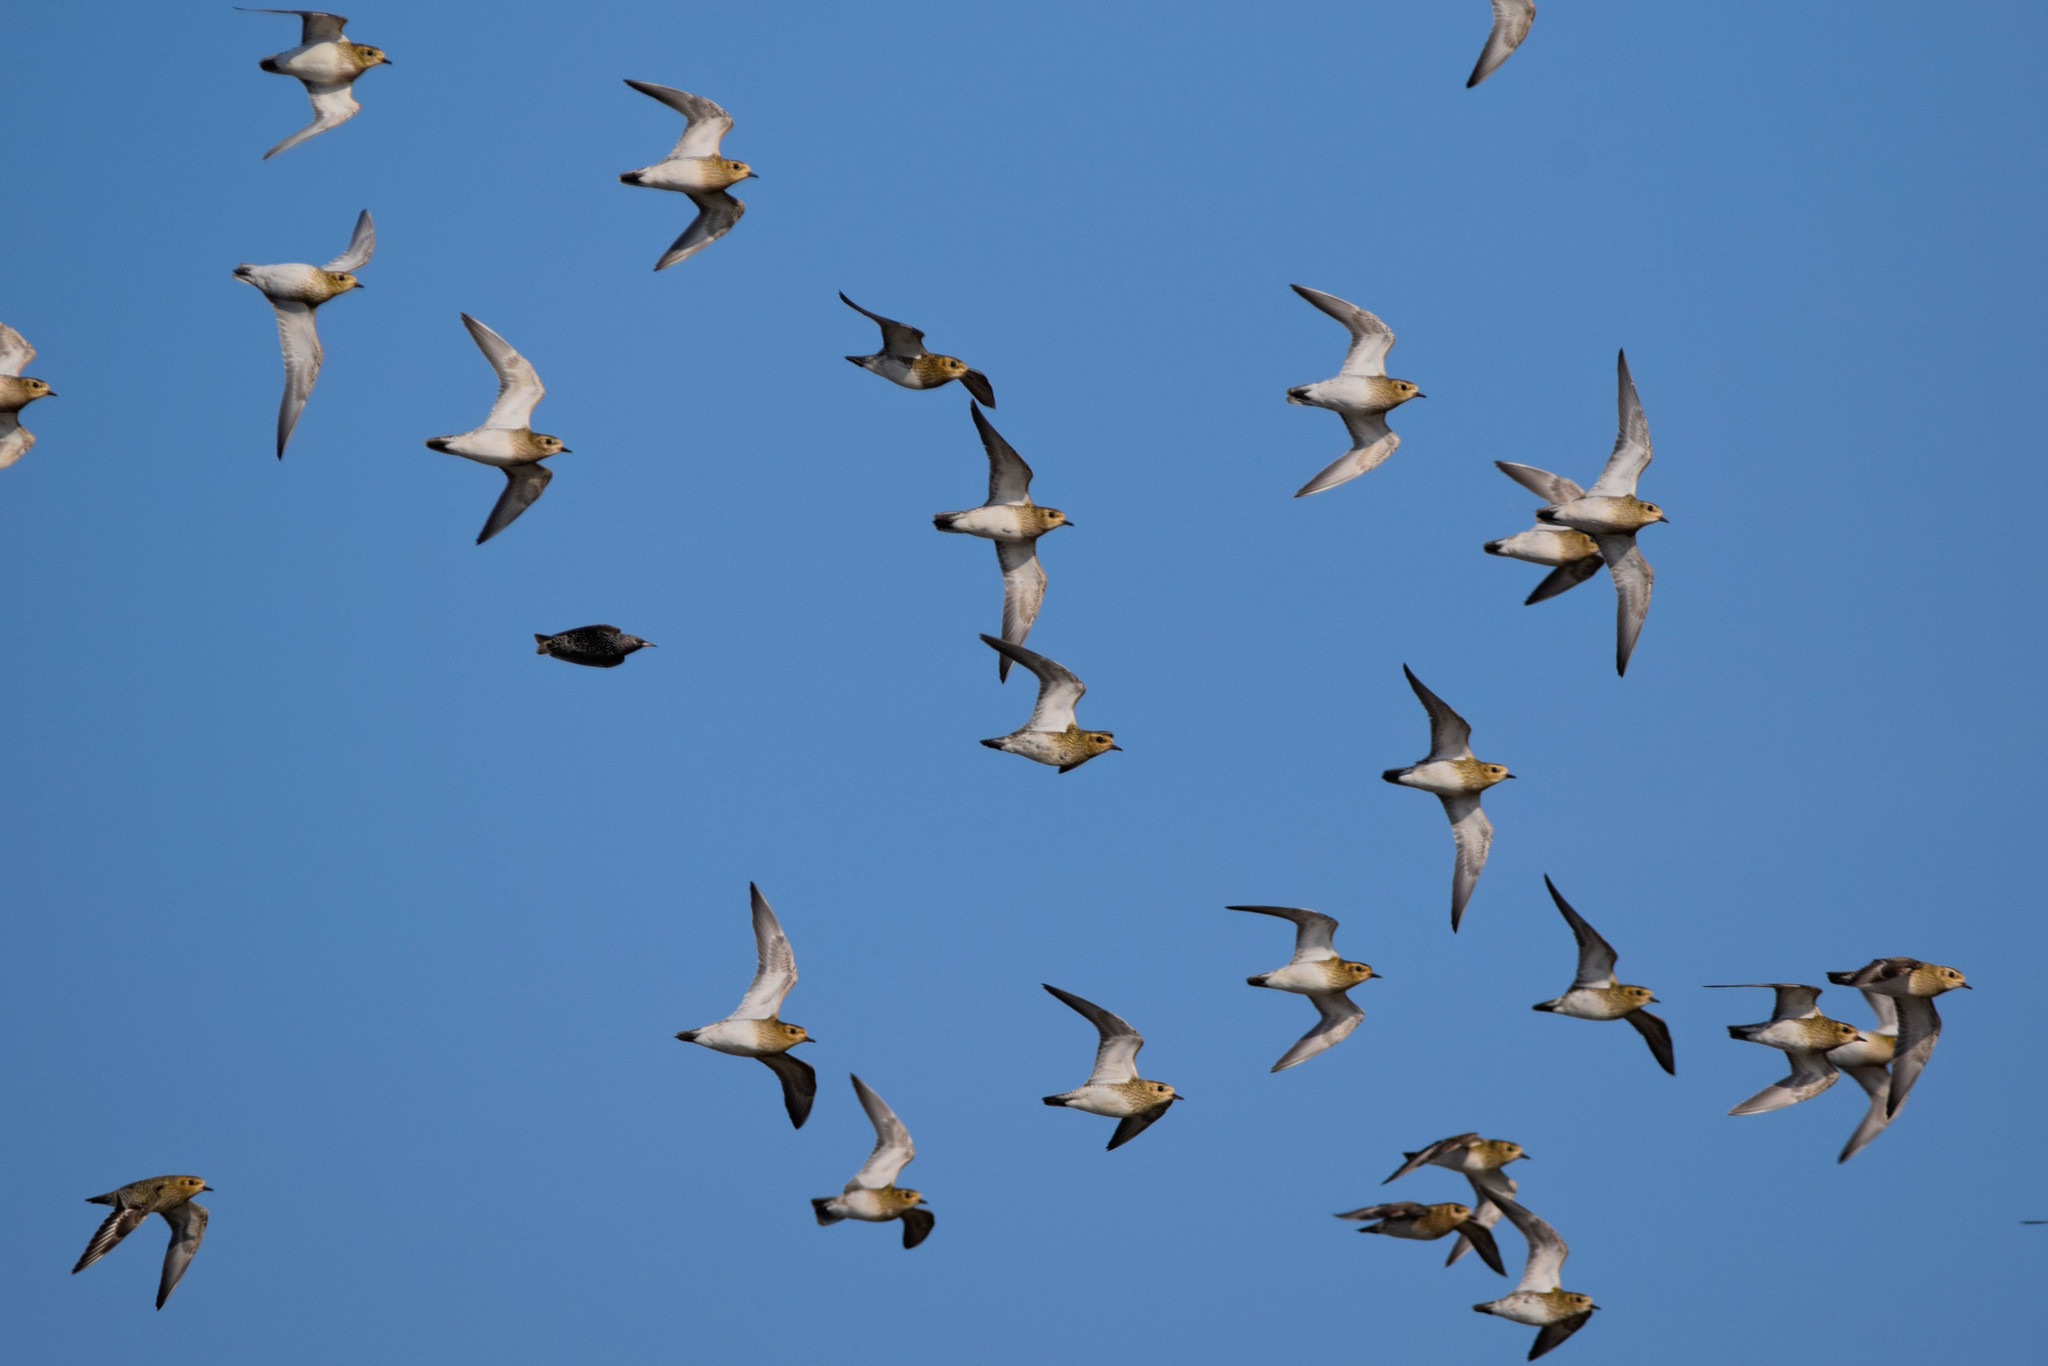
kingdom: Animalia
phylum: Chordata
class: Aves
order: Charadriiformes
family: Charadriidae
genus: Pluvialis
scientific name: Pluvialis apricaria
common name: European golden plover
